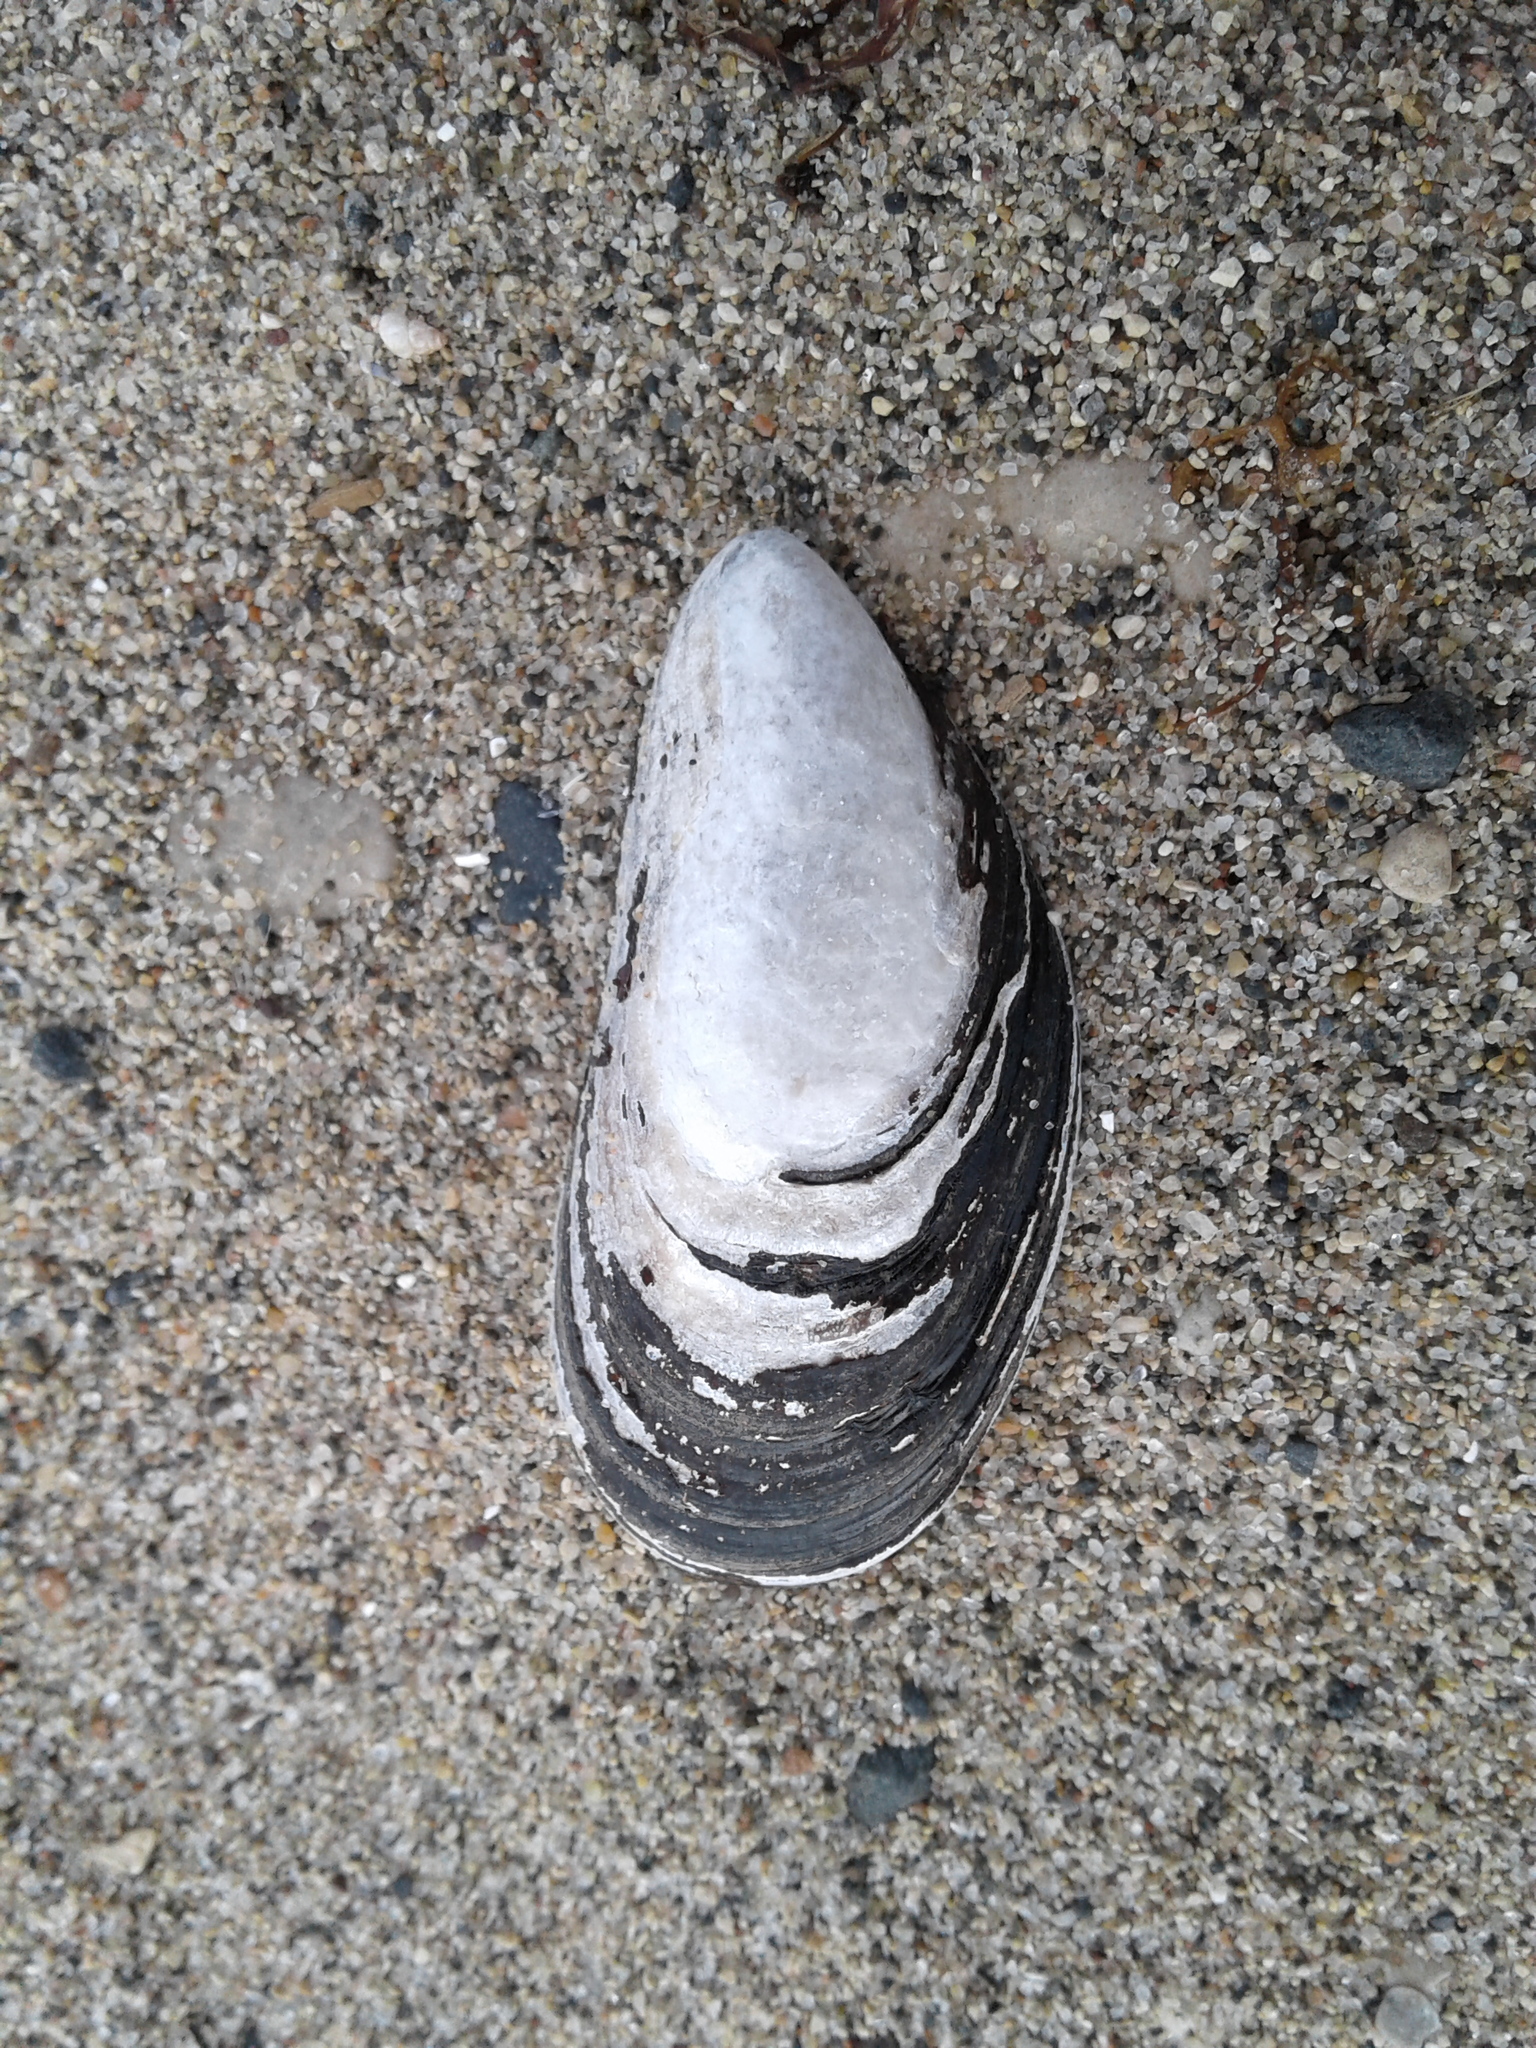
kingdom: Animalia
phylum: Mollusca
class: Bivalvia
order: Mytilida
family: Mytilidae
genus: Mytilus
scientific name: Mytilus edulis
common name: Blue mussel
